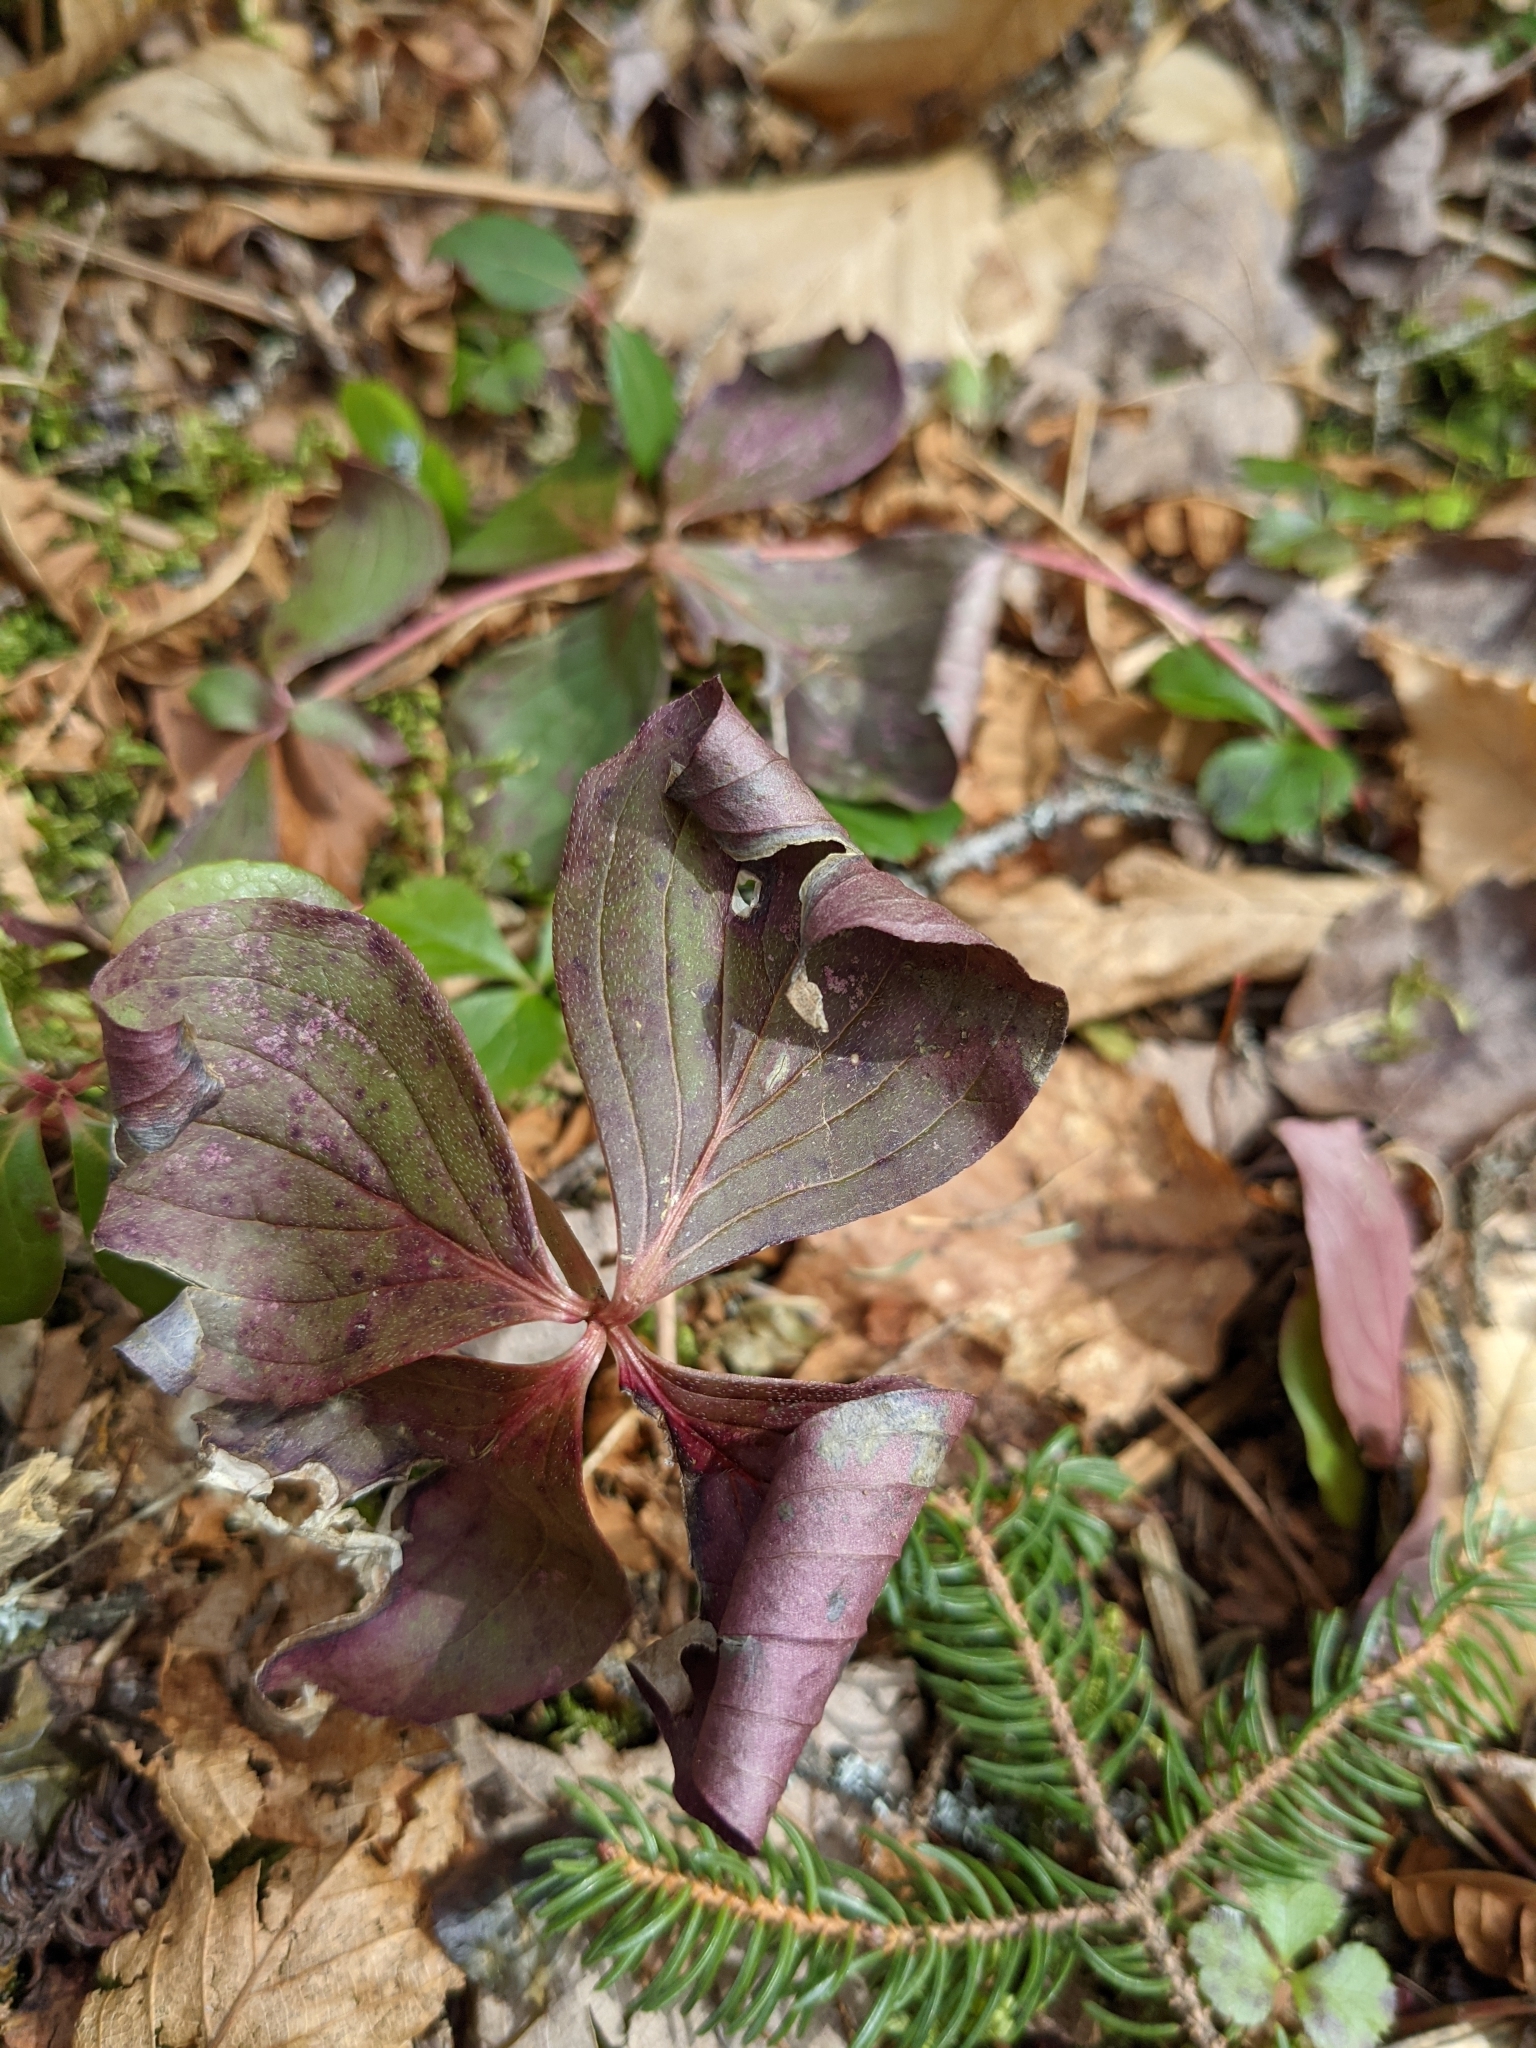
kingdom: Plantae
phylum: Tracheophyta
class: Magnoliopsida
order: Cornales
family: Cornaceae
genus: Cornus
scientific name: Cornus canadensis
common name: Creeping dogwood
